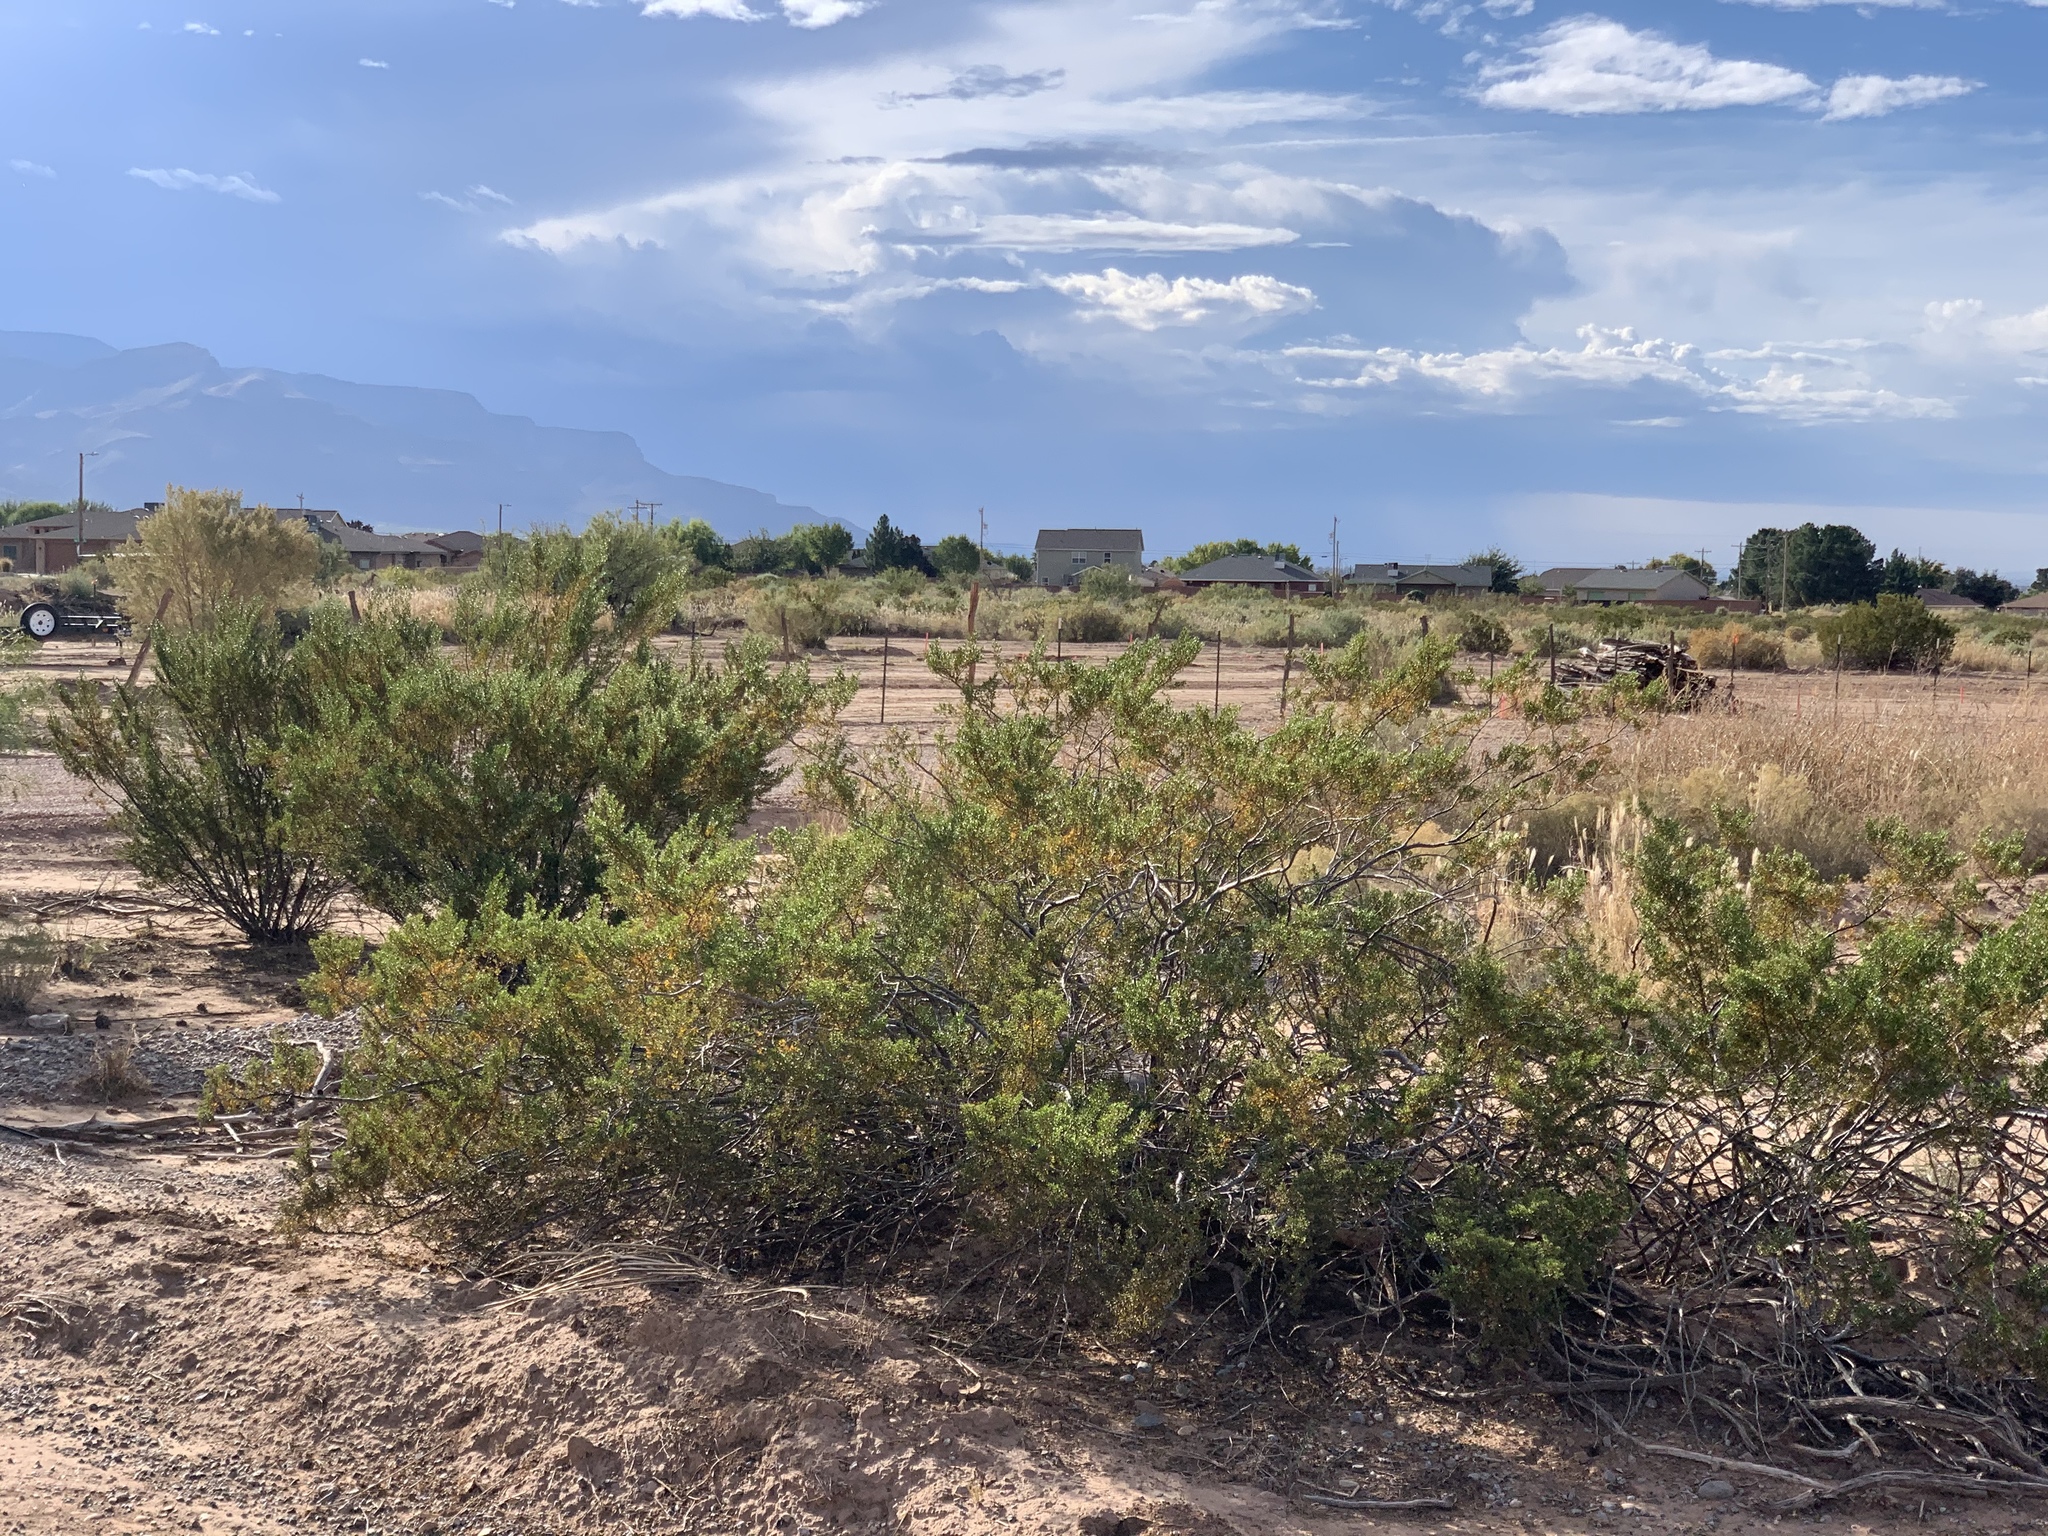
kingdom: Plantae
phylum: Tracheophyta
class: Magnoliopsida
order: Zygophyllales
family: Zygophyllaceae
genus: Larrea
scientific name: Larrea tridentata
